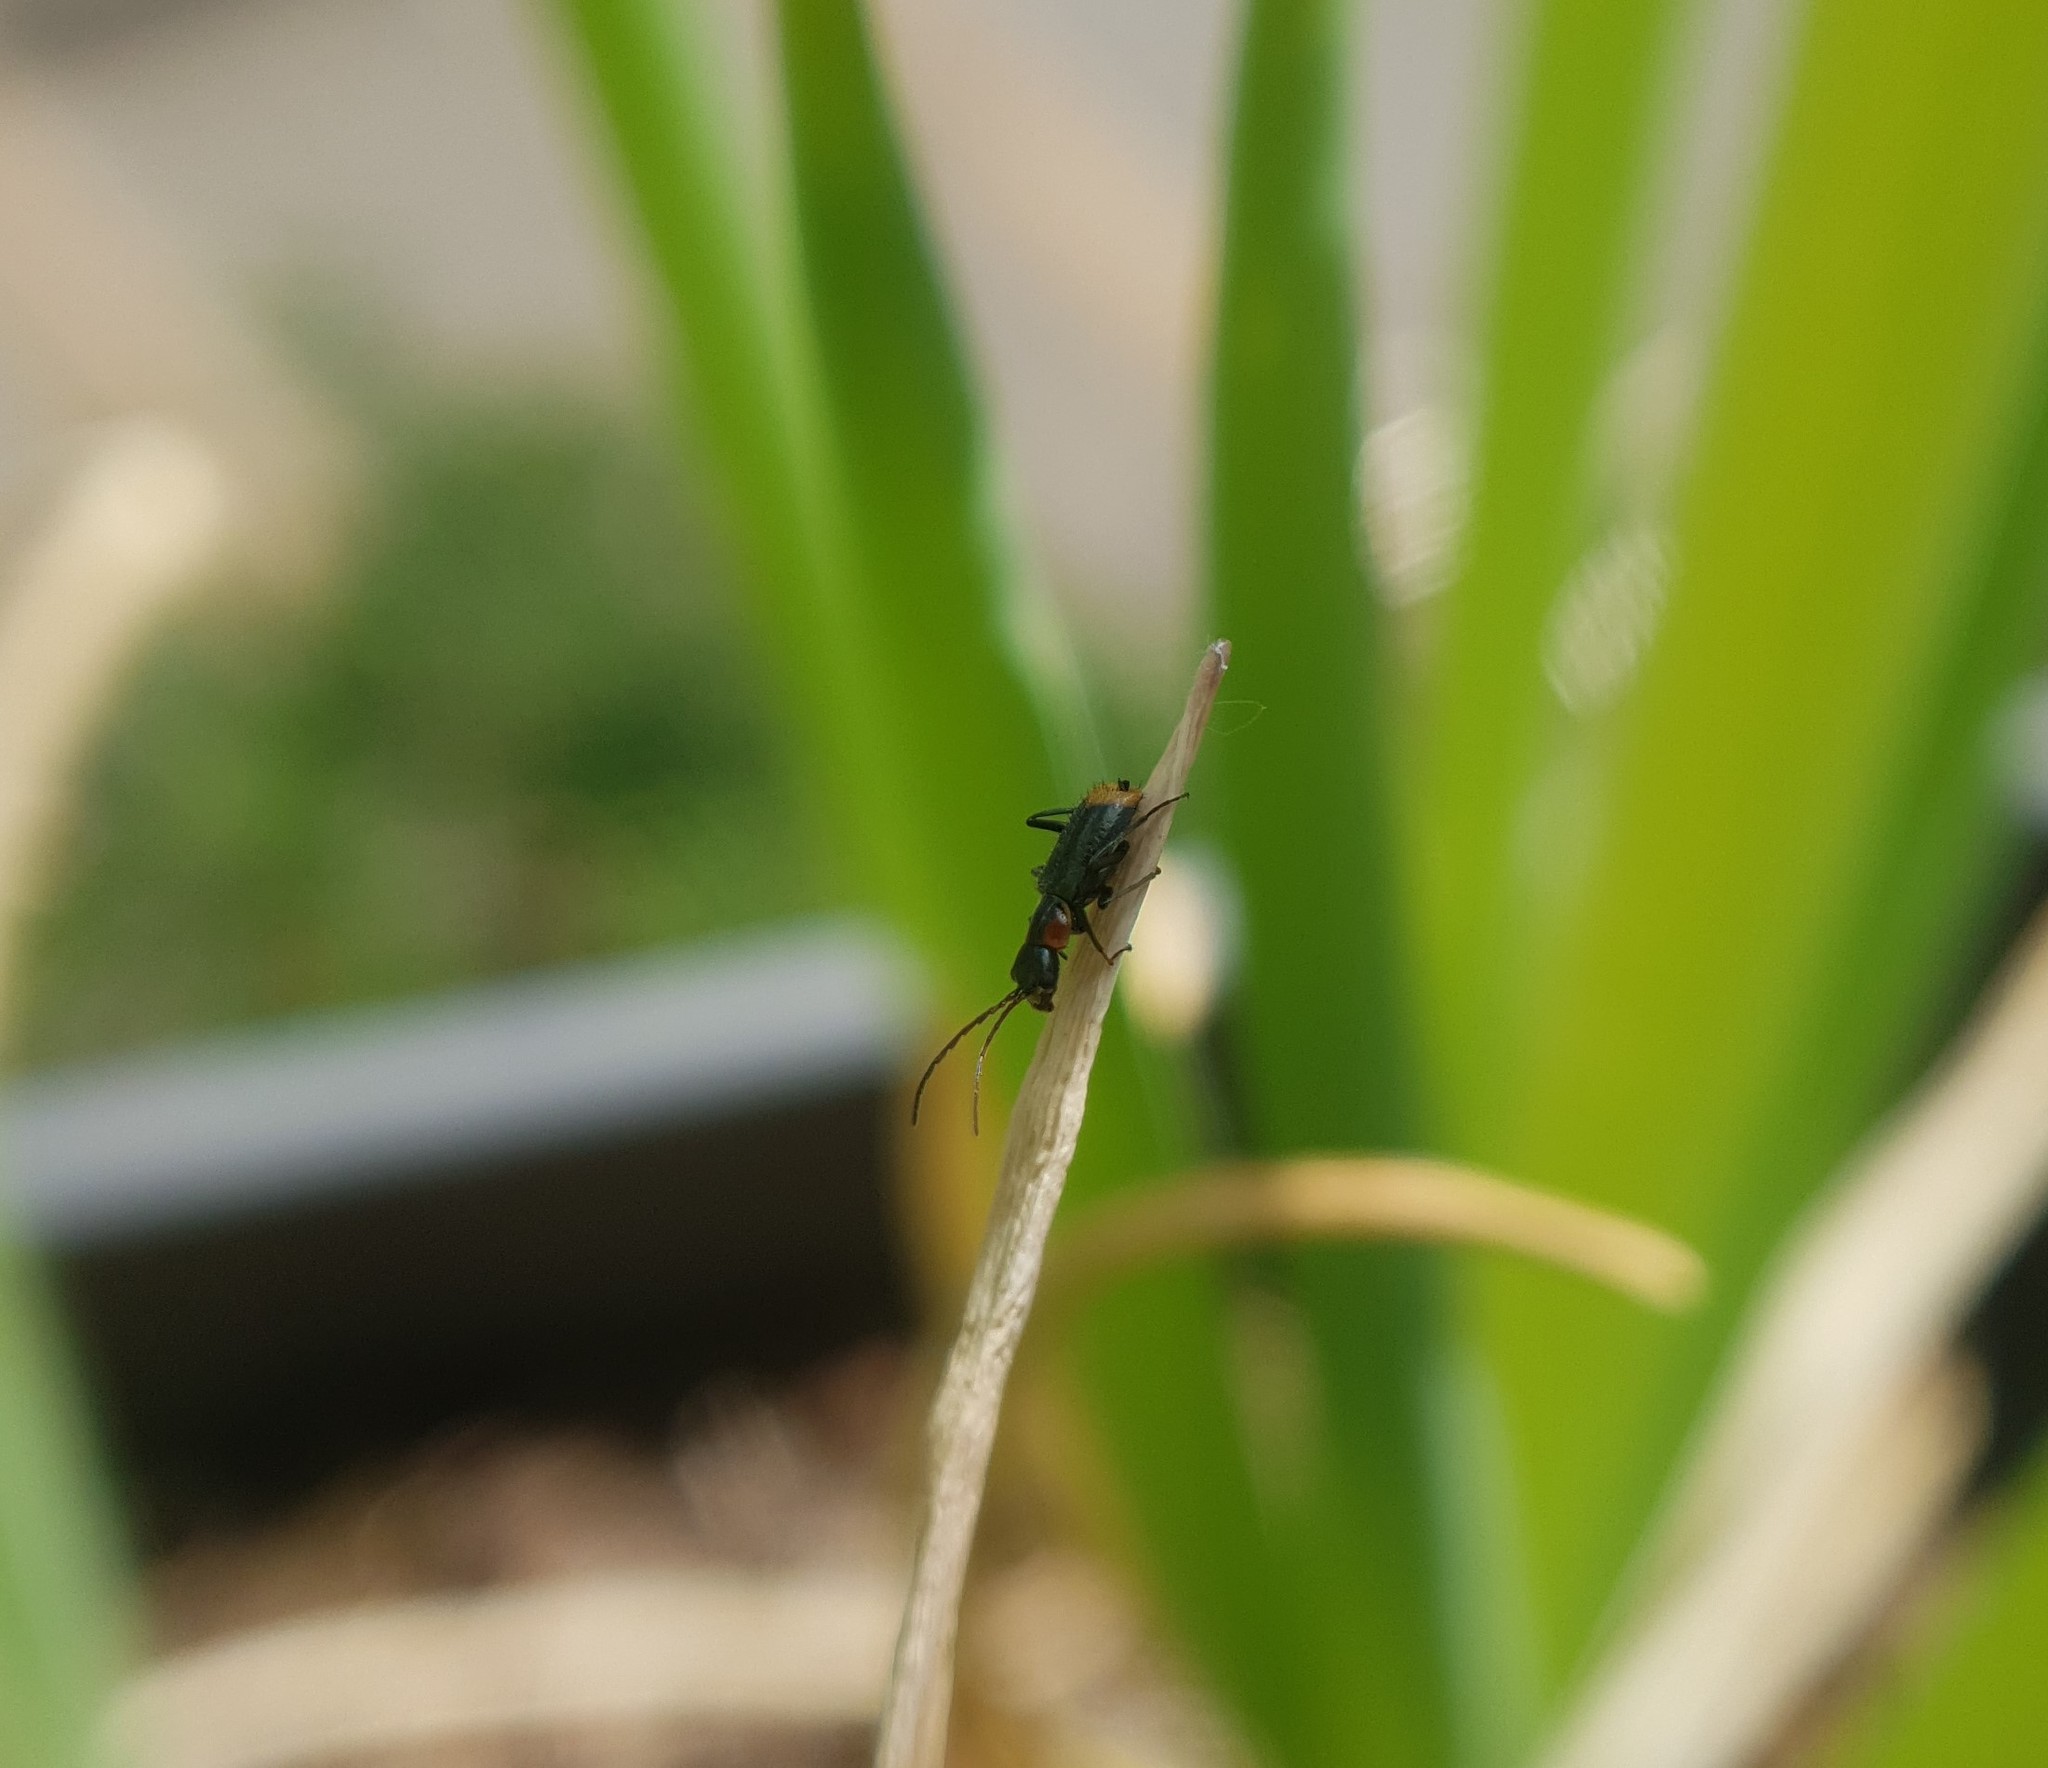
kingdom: Animalia
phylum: Arthropoda
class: Insecta
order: Coleoptera
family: Melyridae
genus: Axinotarsus
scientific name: Axinotarsus pulicarius
